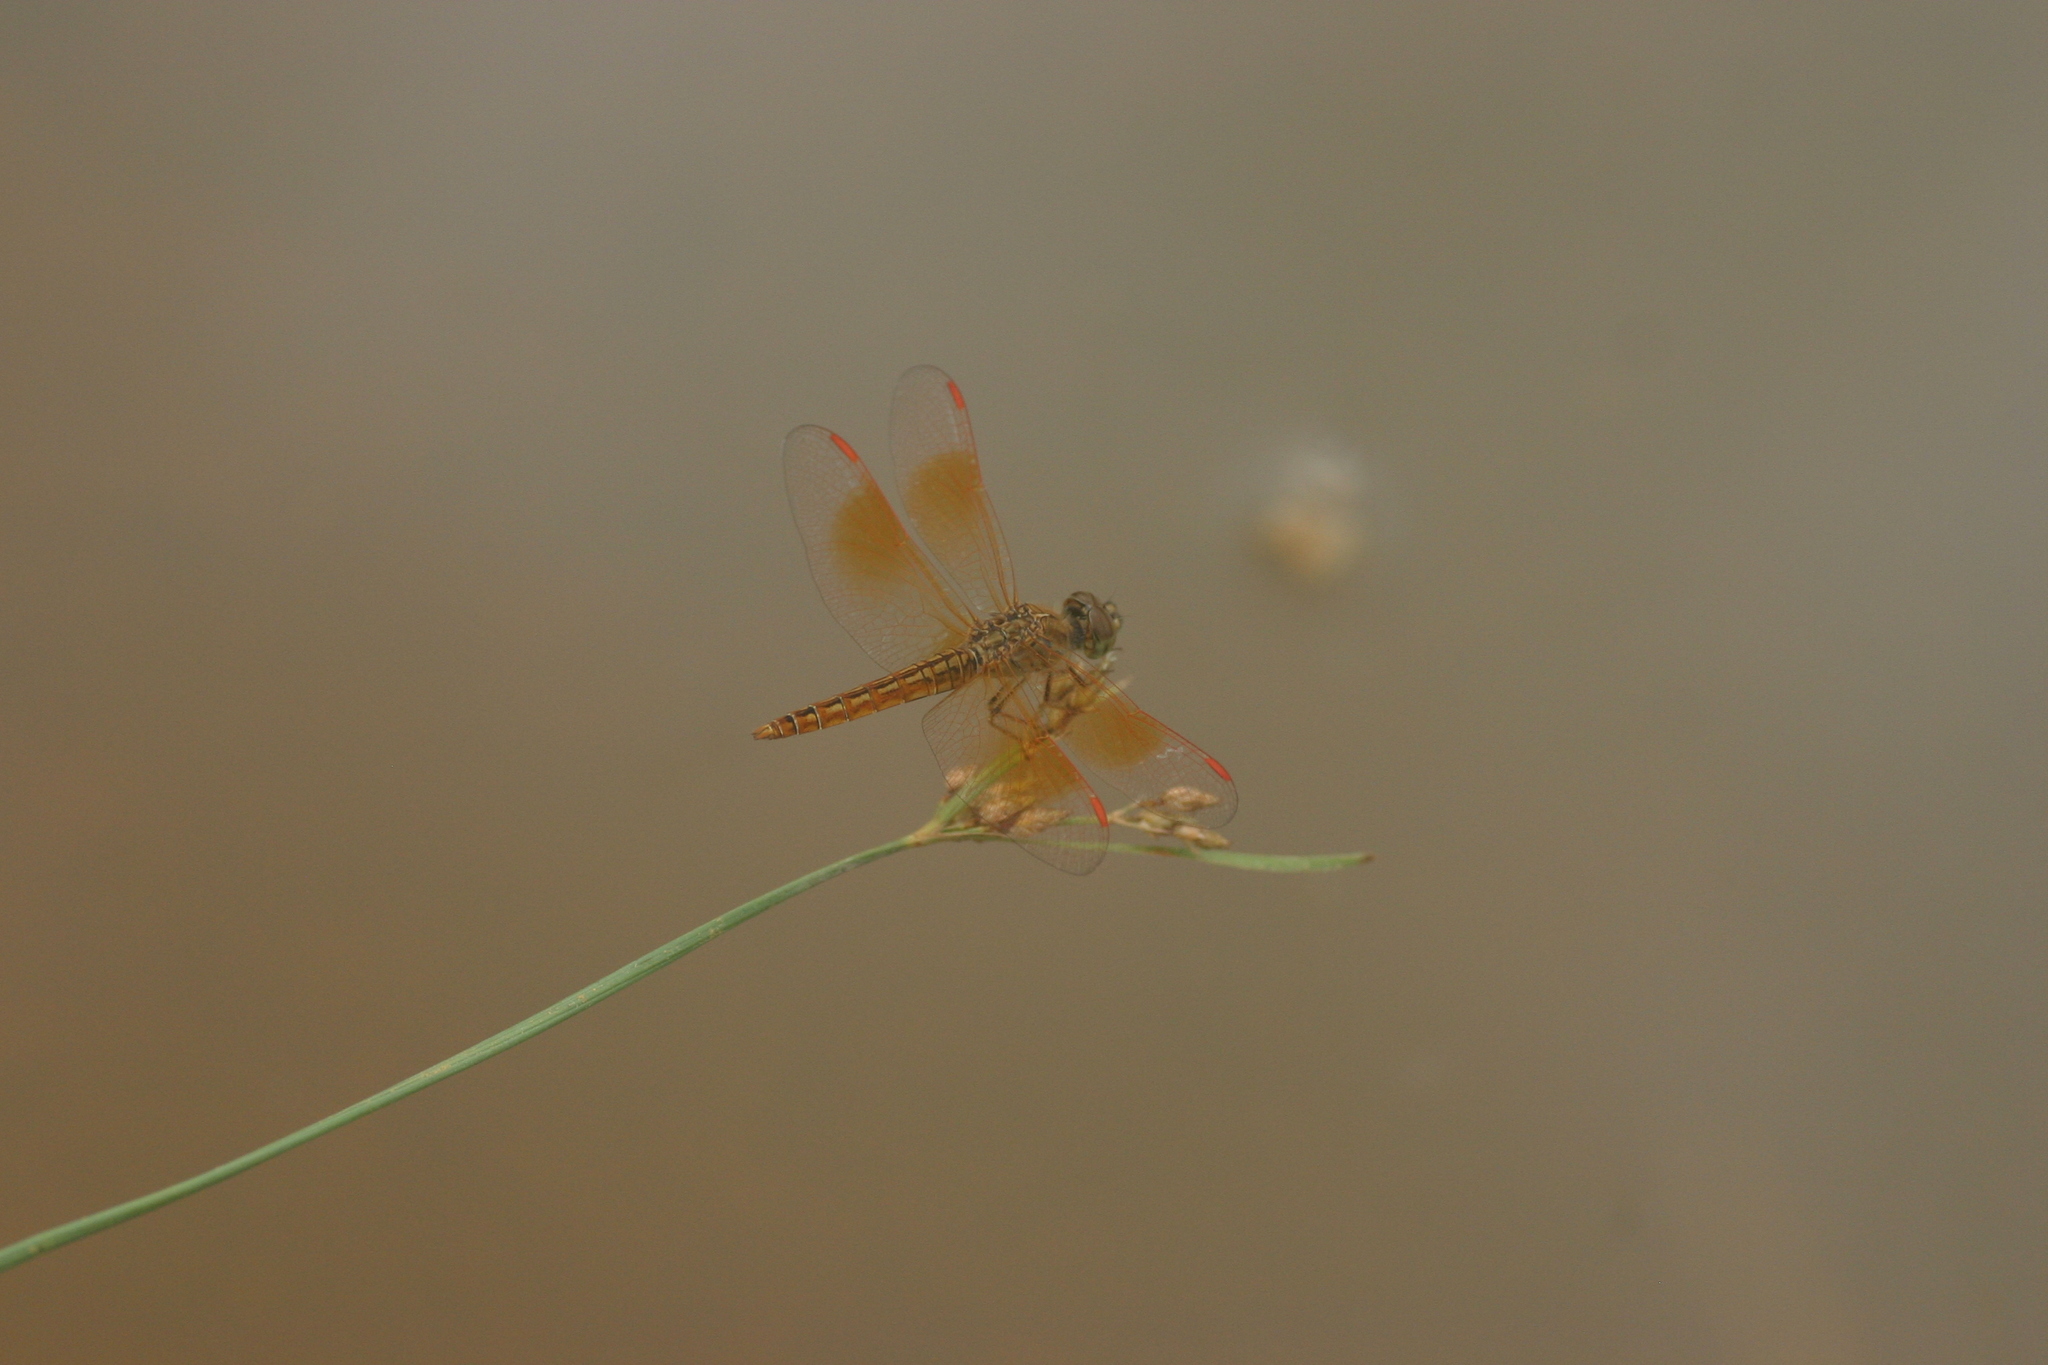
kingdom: Animalia
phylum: Arthropoda
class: Insecta
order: Odonata
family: Libellulidae
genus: Brachythemis
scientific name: Brachythemis contaminata
